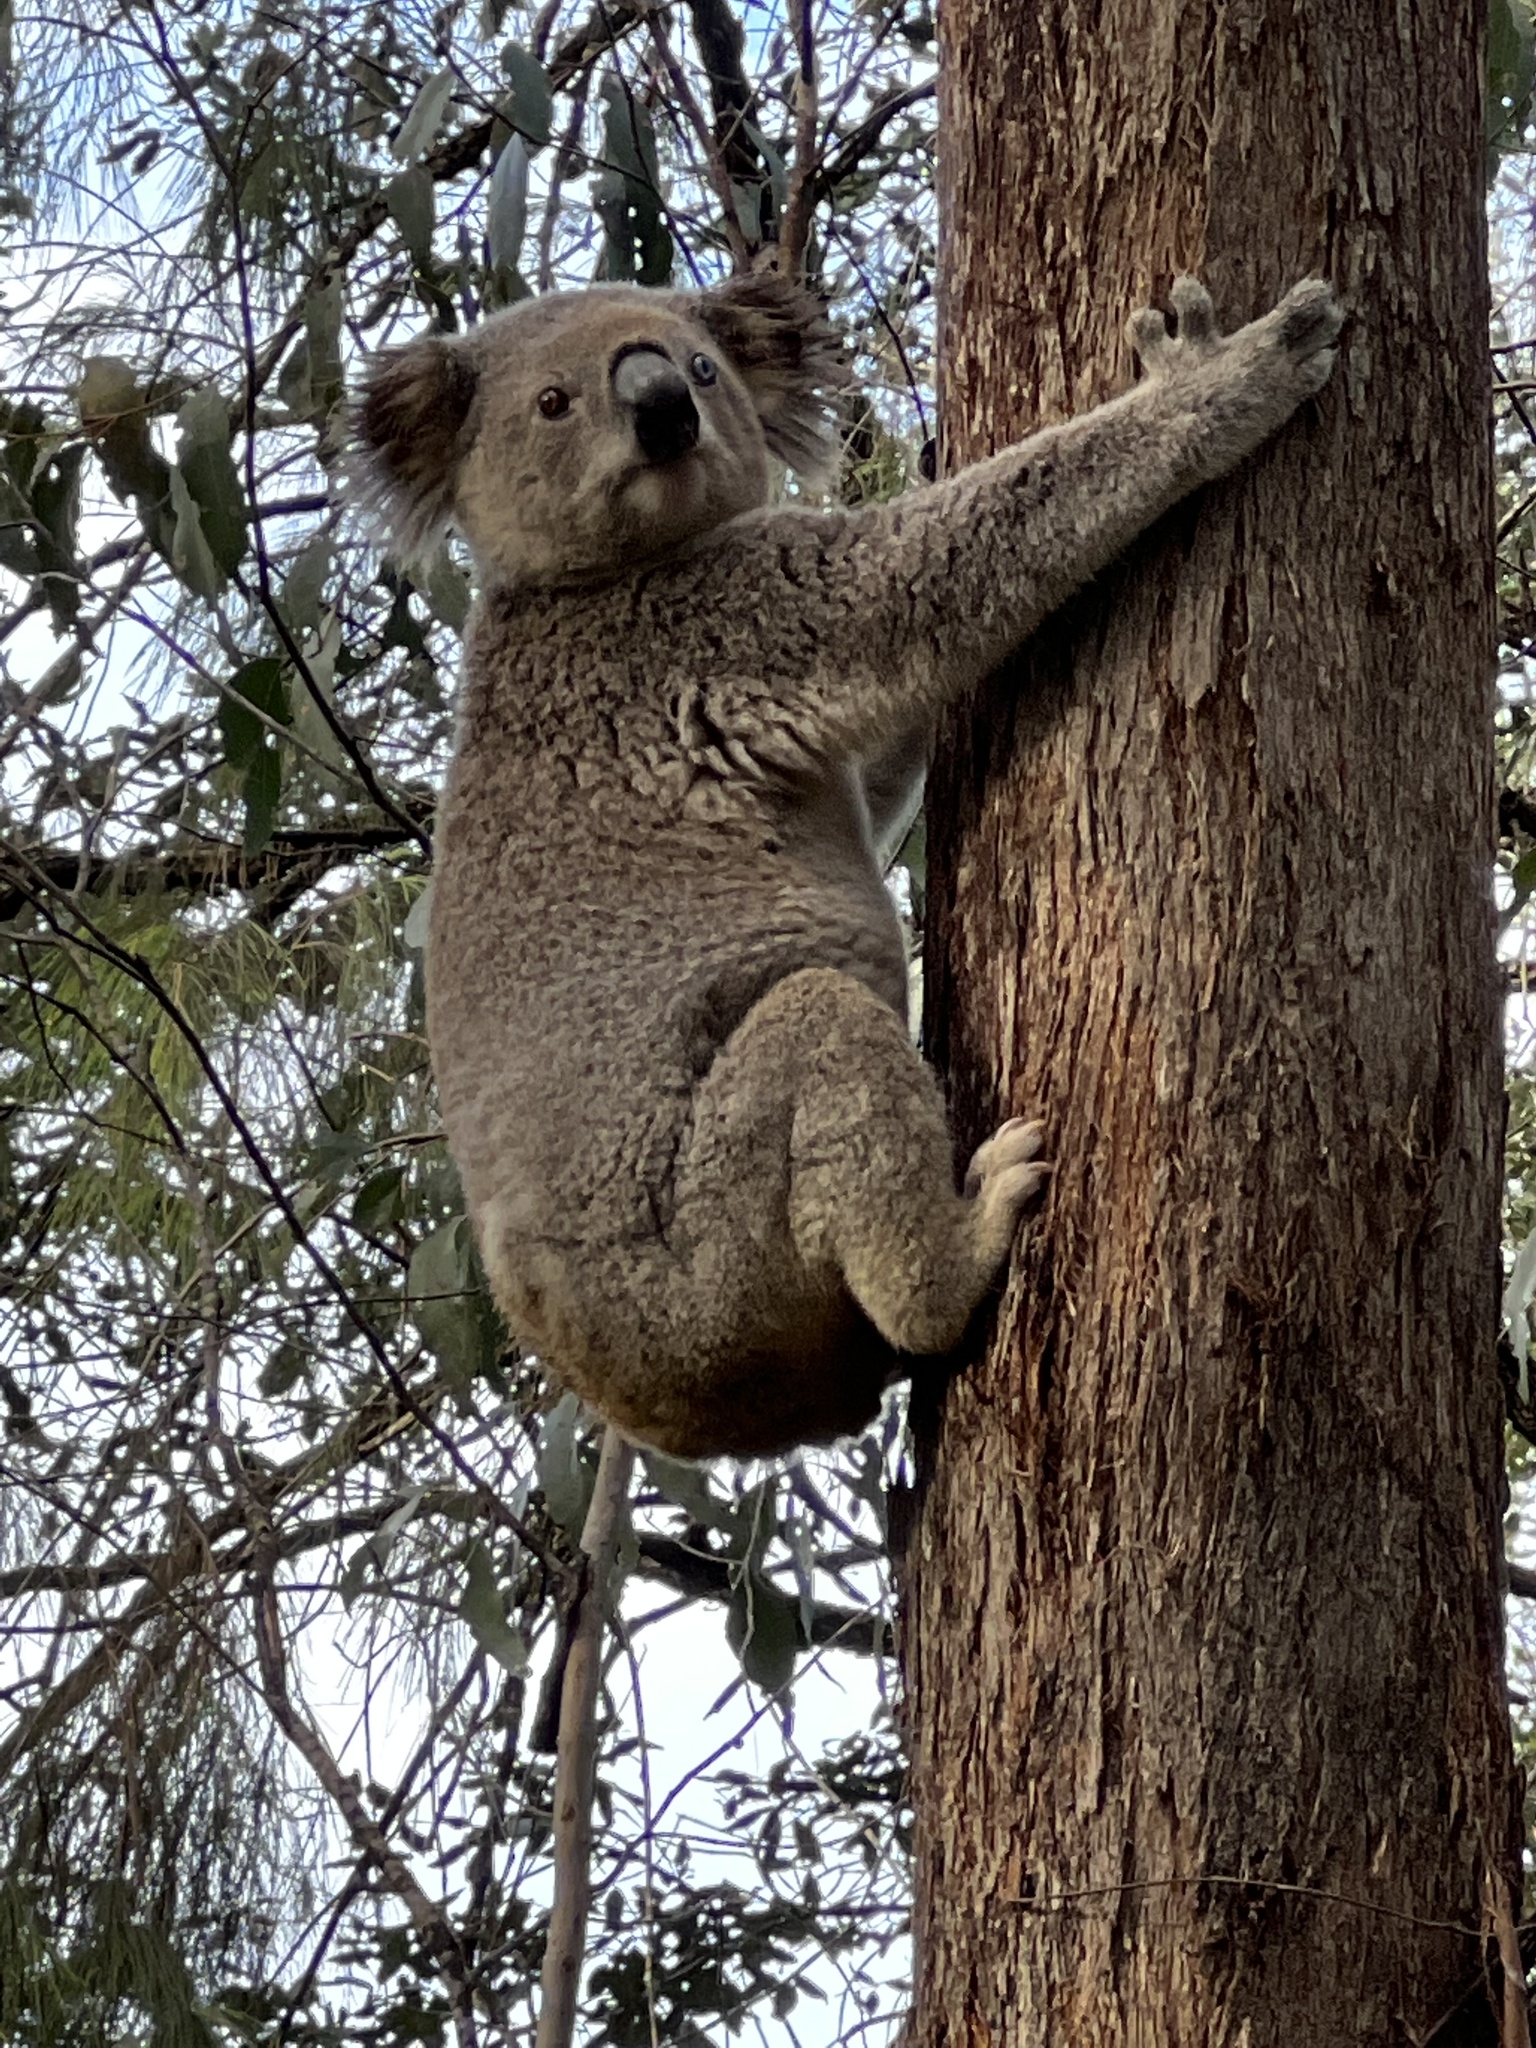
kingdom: Animalia
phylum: Chordata
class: Mammalia
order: Diprotodontia
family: Phascolarctidae
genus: Phascolarctos
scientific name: Phascolarctos cinereus
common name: Koala
